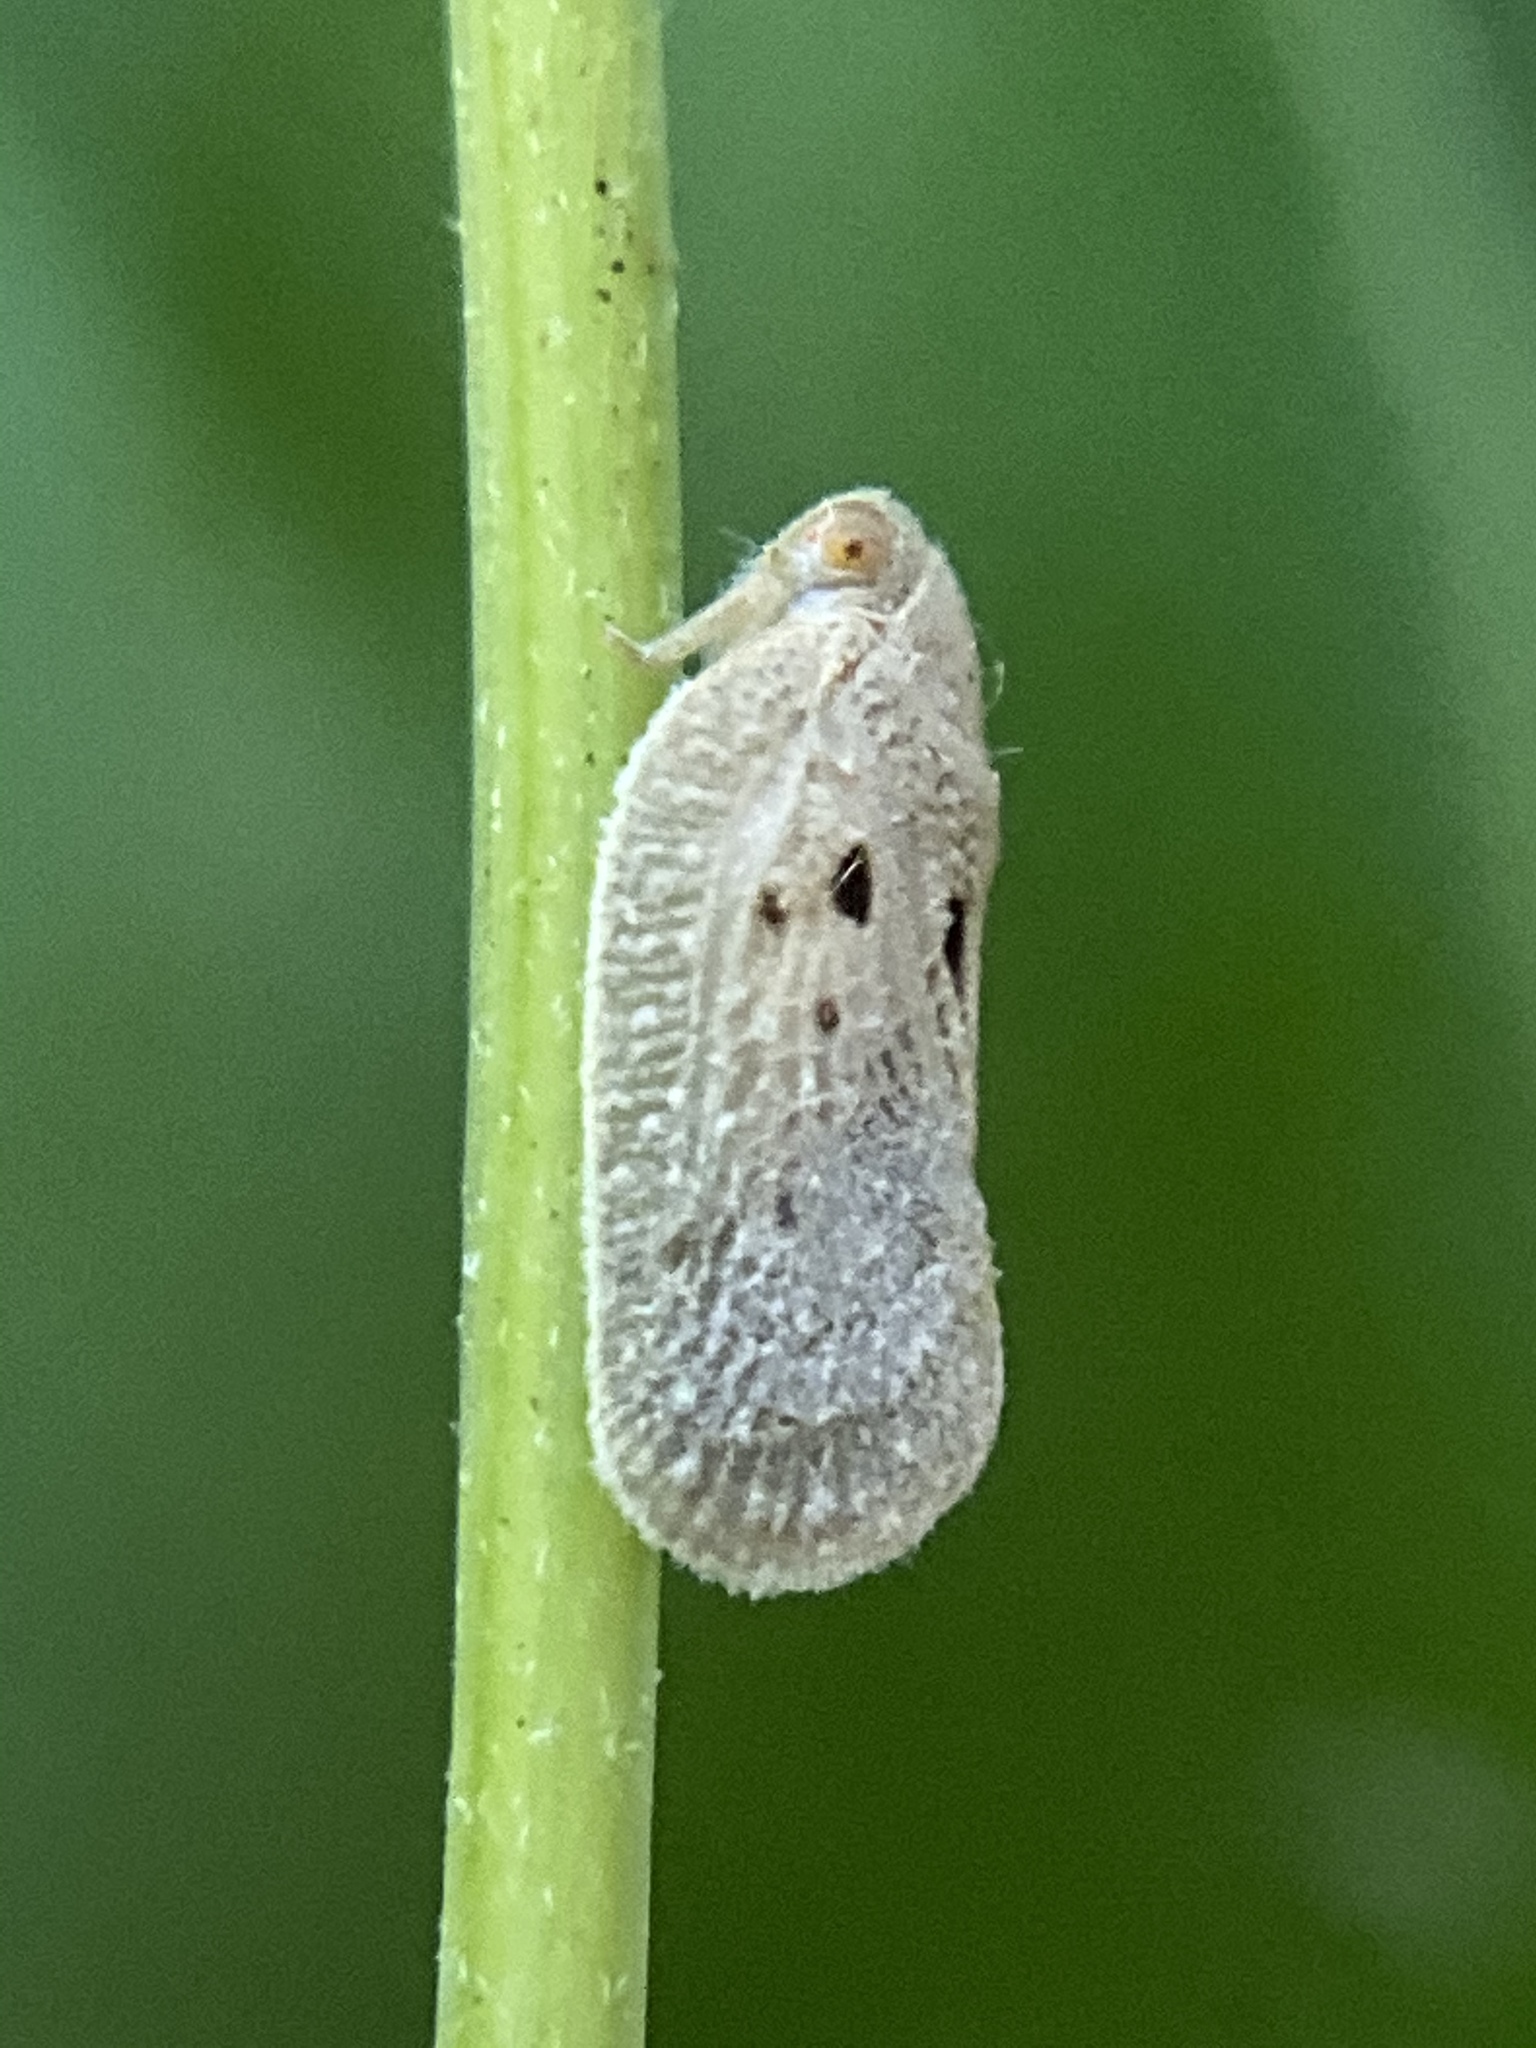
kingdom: Animalia
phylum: Arthropoda
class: Insecta
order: Hemiptera
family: Flatidae
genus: Metcalfa
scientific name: Metcalfa pruinosa
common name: Citrus flatid planthopper
